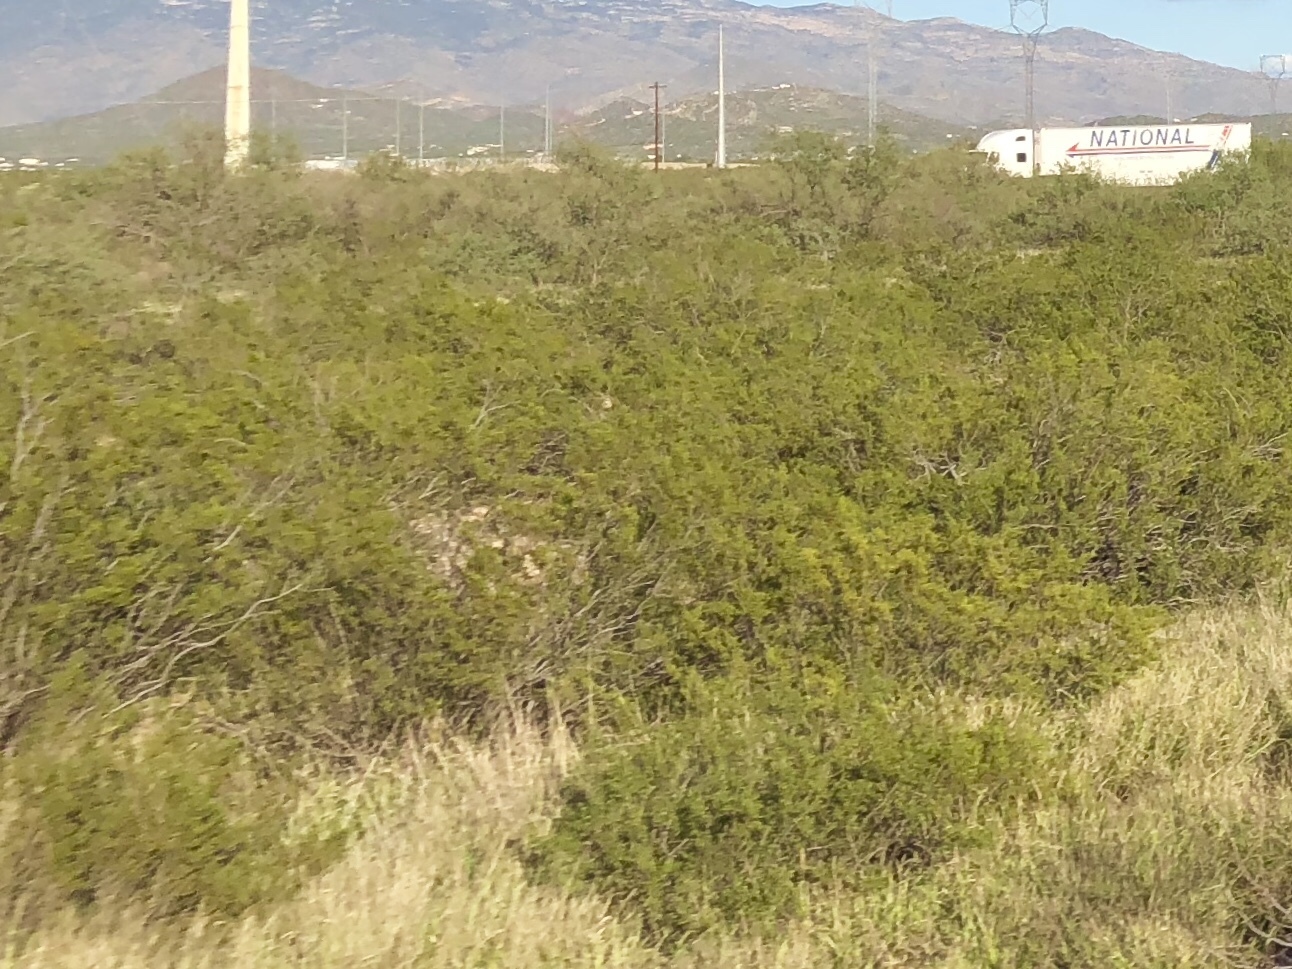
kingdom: Plantae
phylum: Tracheophyta
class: Magnoliopsida
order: Zygophyllales
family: Zygophyllaceae
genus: Larrea
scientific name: Larrea tridentata
